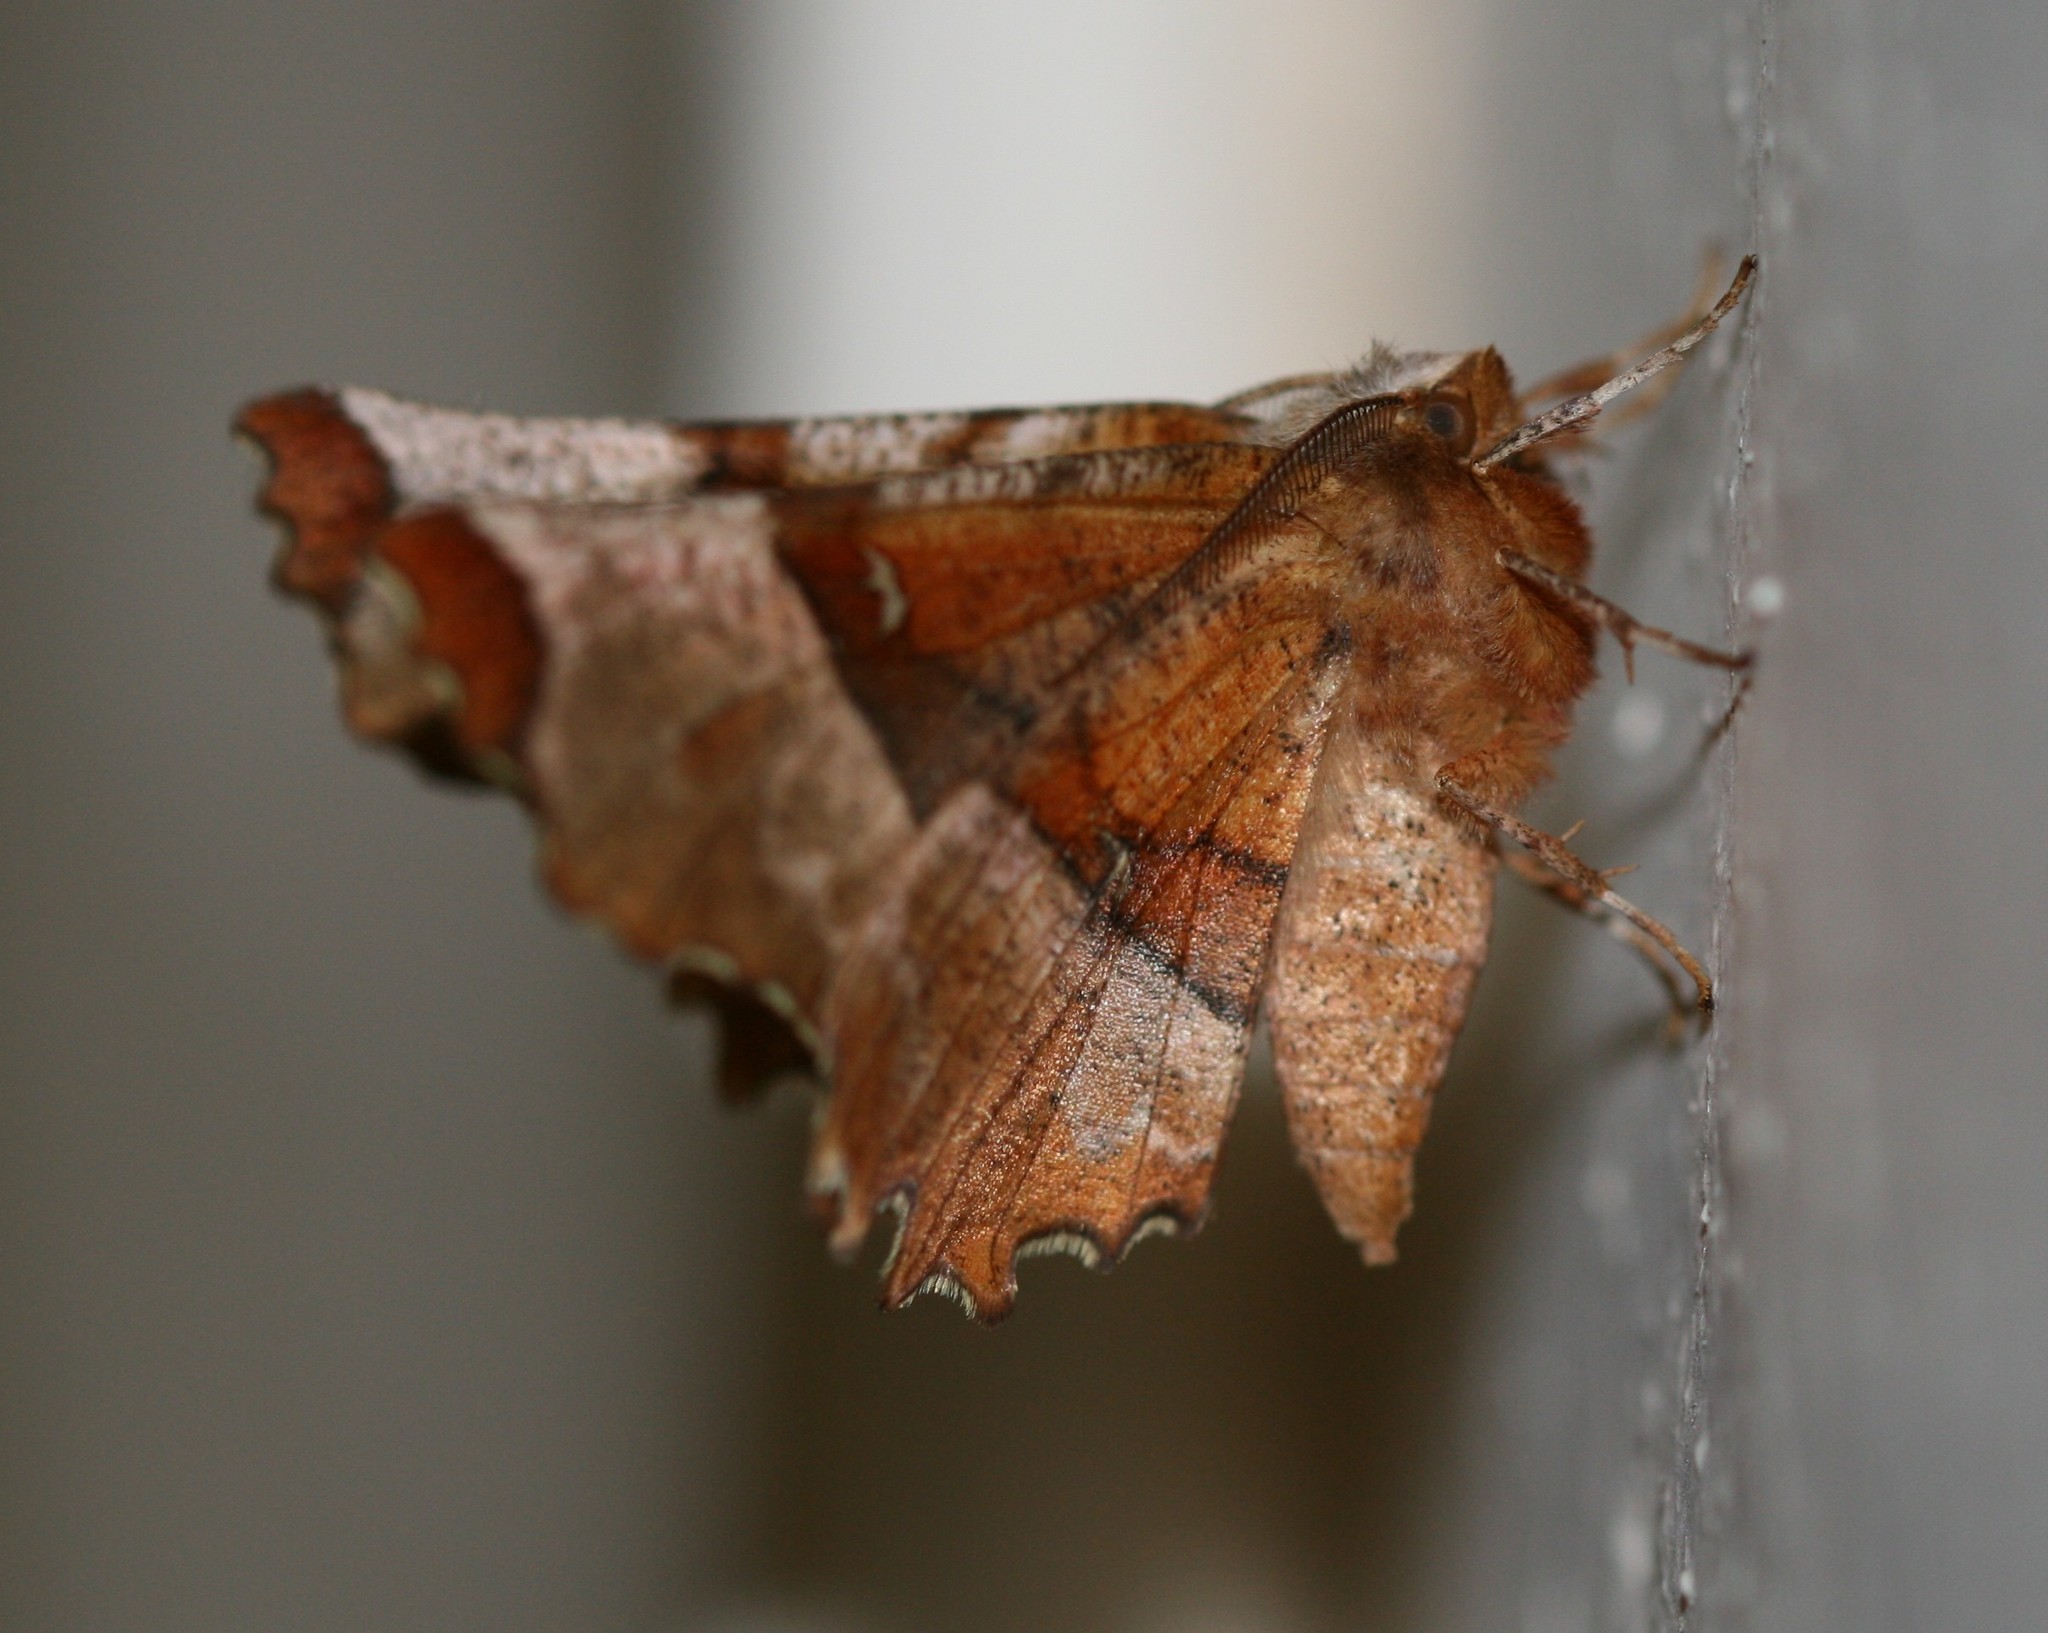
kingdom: Animalia
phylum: Arthropoda
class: Insecta
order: Lepidoptera
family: Geometridae
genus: Selenia
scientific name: Selenia lunularia
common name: Lunar thorn
